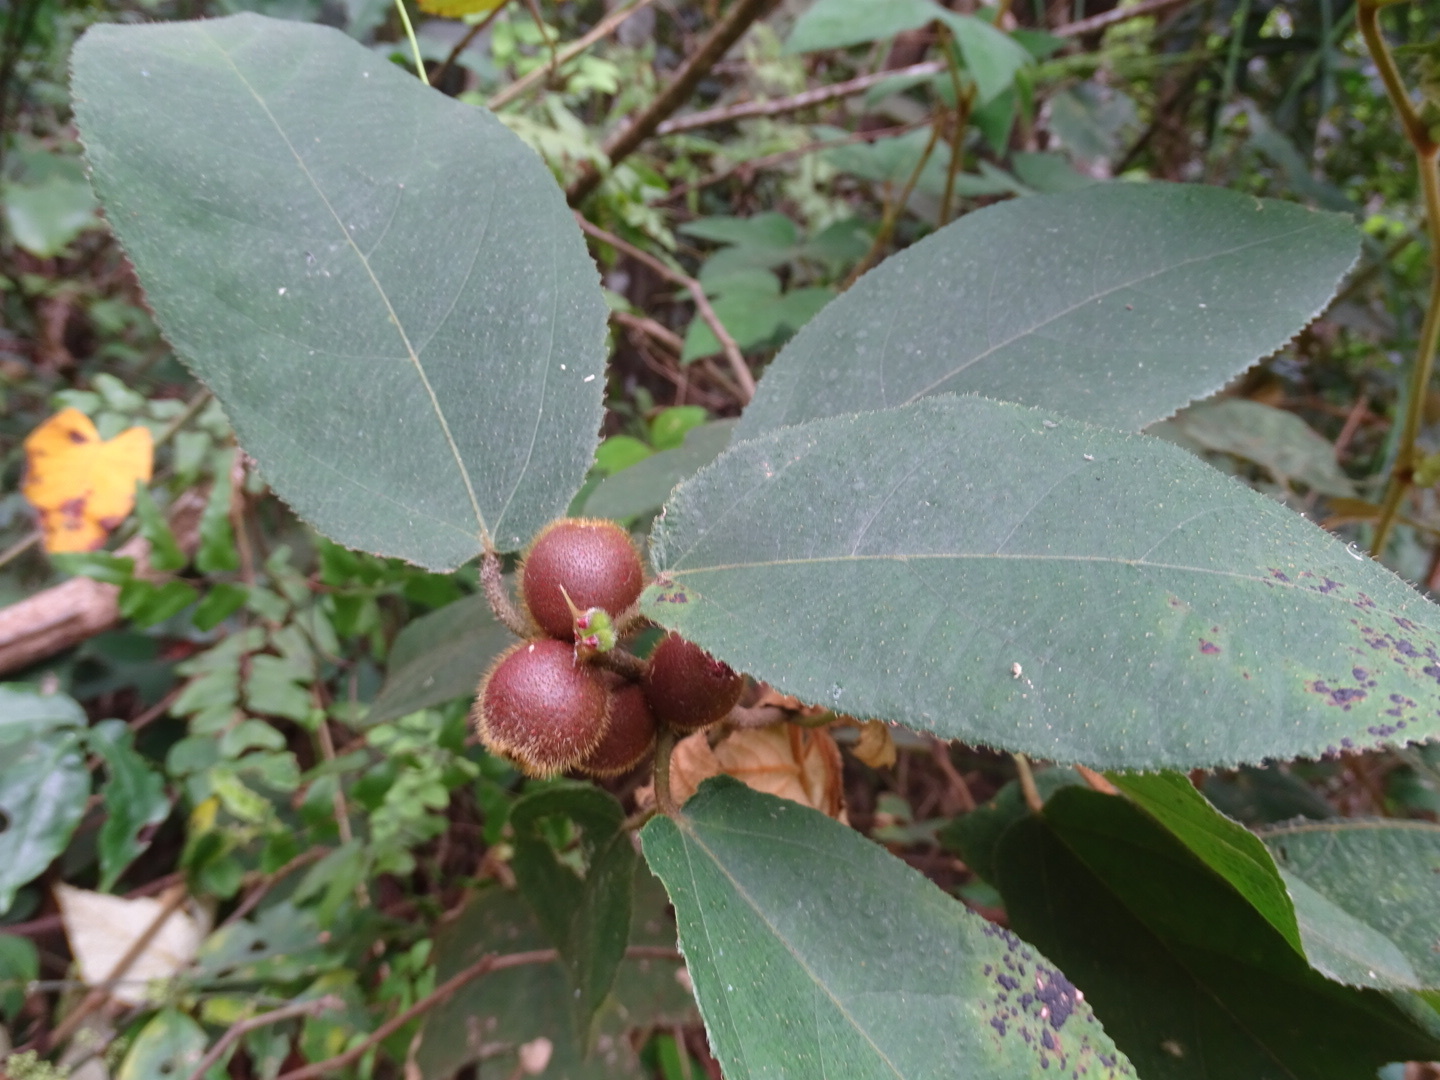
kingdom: Plantae
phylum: Tracheophyta
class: Magnoliopsida
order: Rosales
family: Moraceae
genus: Ficus
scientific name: Ficus simplicissima
